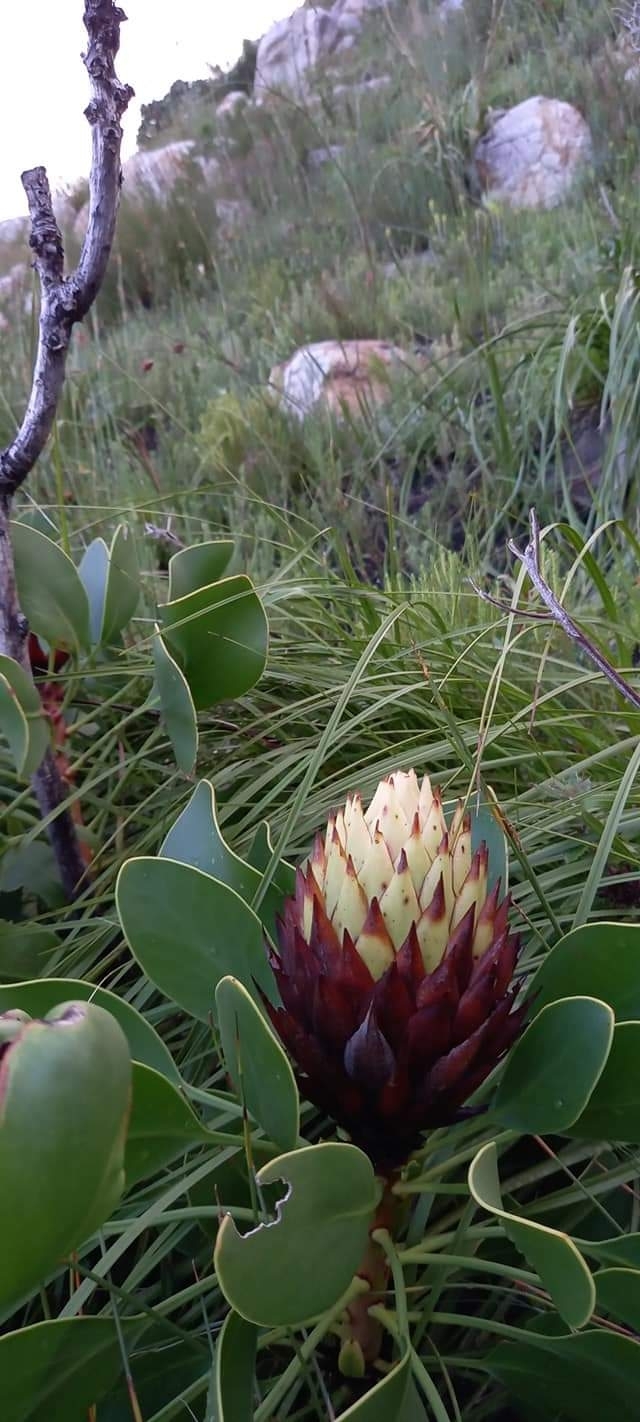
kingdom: Plantae
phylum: Tracheophyta
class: Magnoliopsida
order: Proteales
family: Proteaceae
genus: Protea
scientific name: Protea cynaroides
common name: King protea
